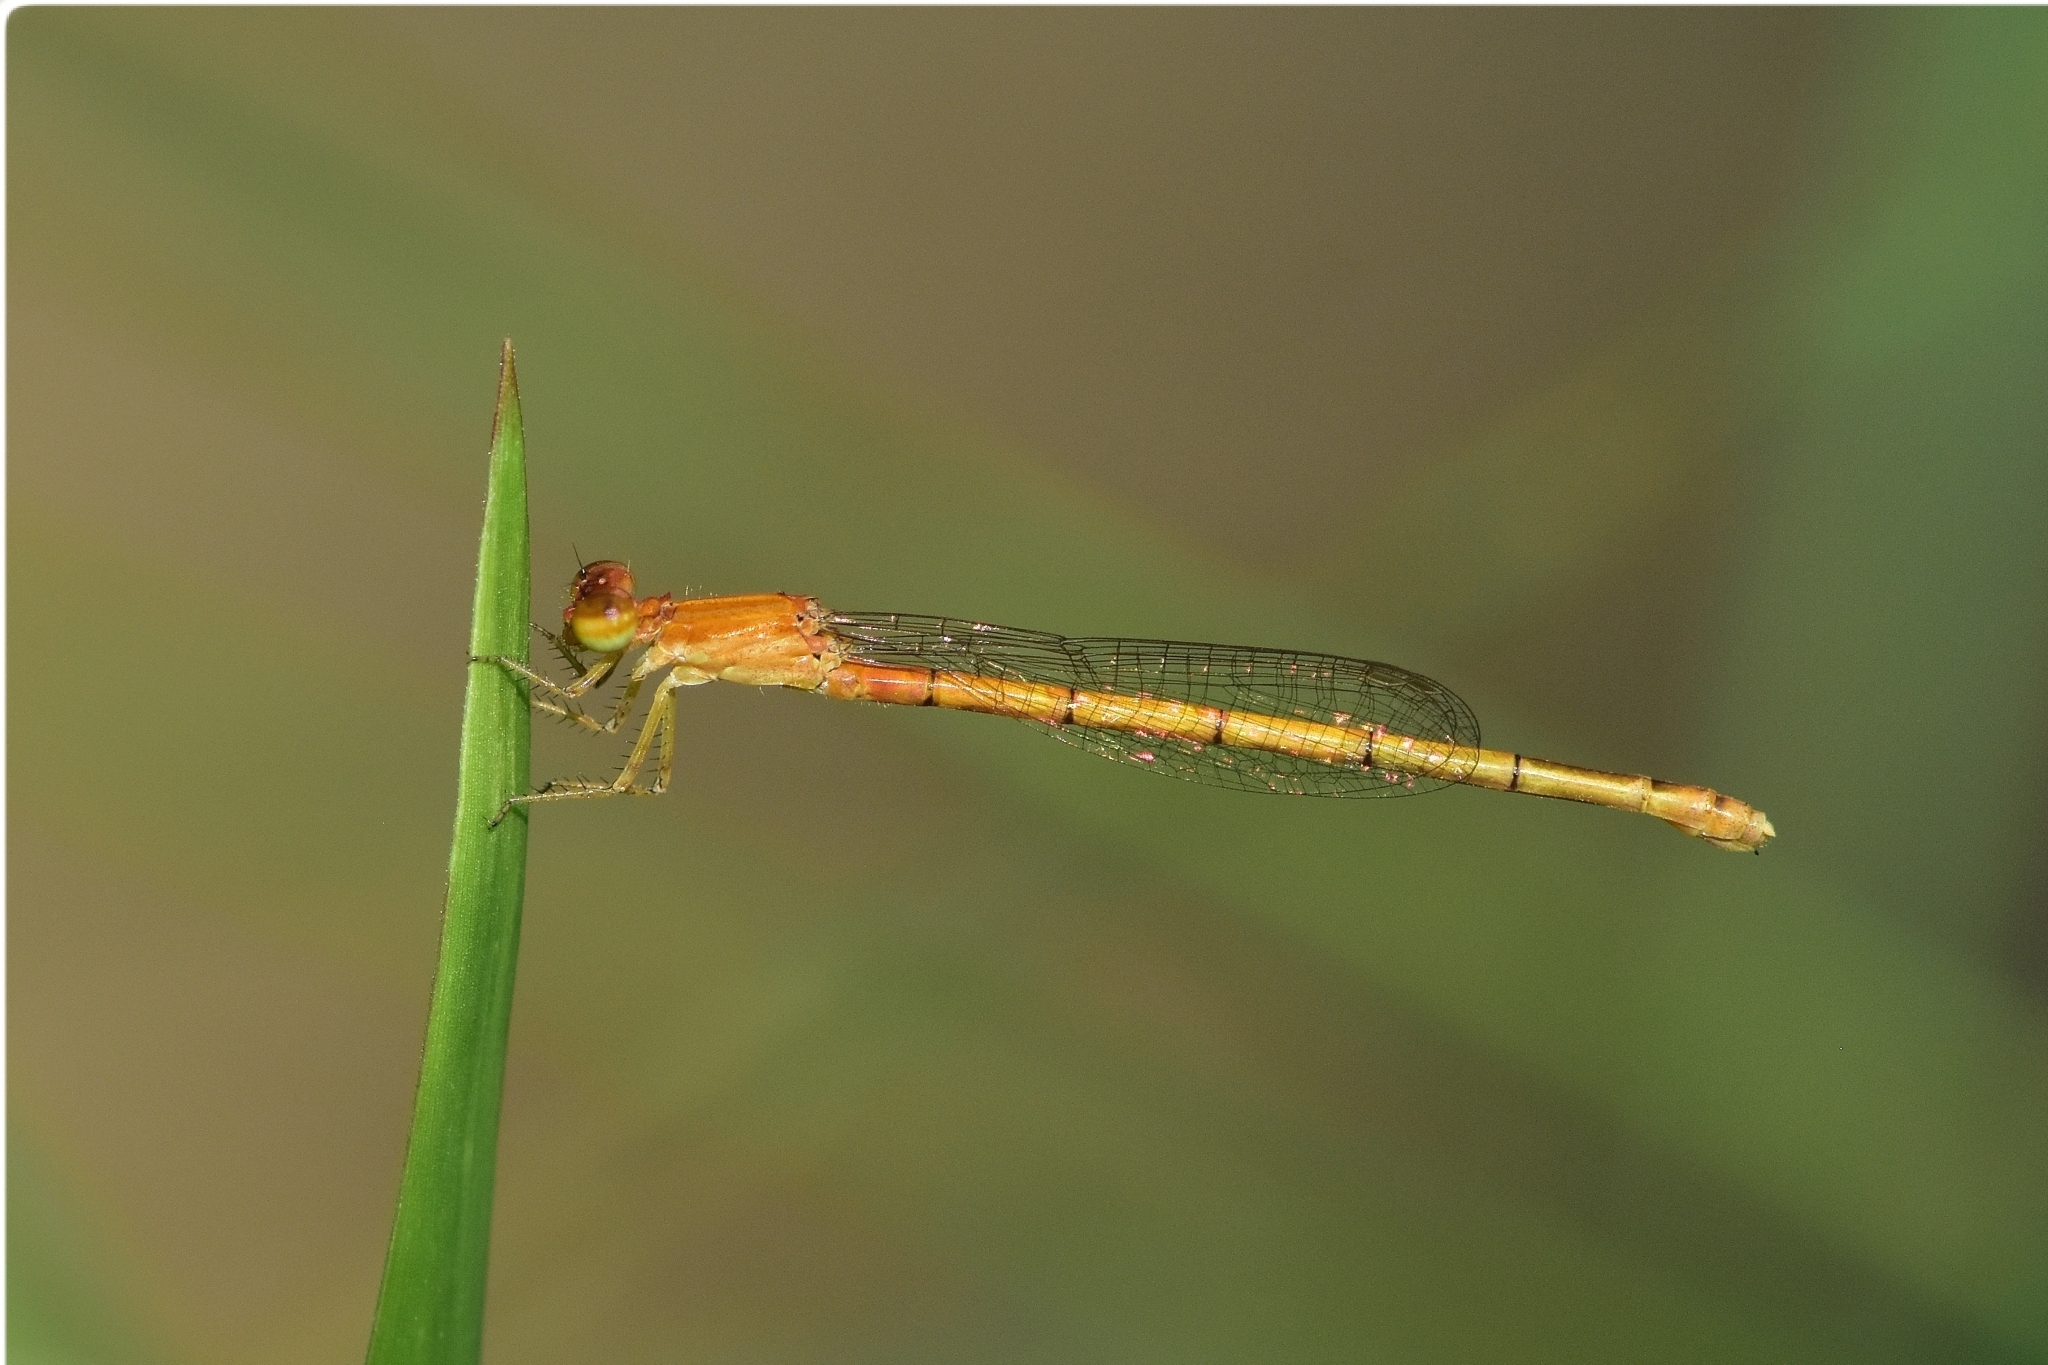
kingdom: Animalia
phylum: Arthropoda
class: Insecta
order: Odonata
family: Coenagrionidae
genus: Agriocnemis
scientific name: Agriocnemis pieris
